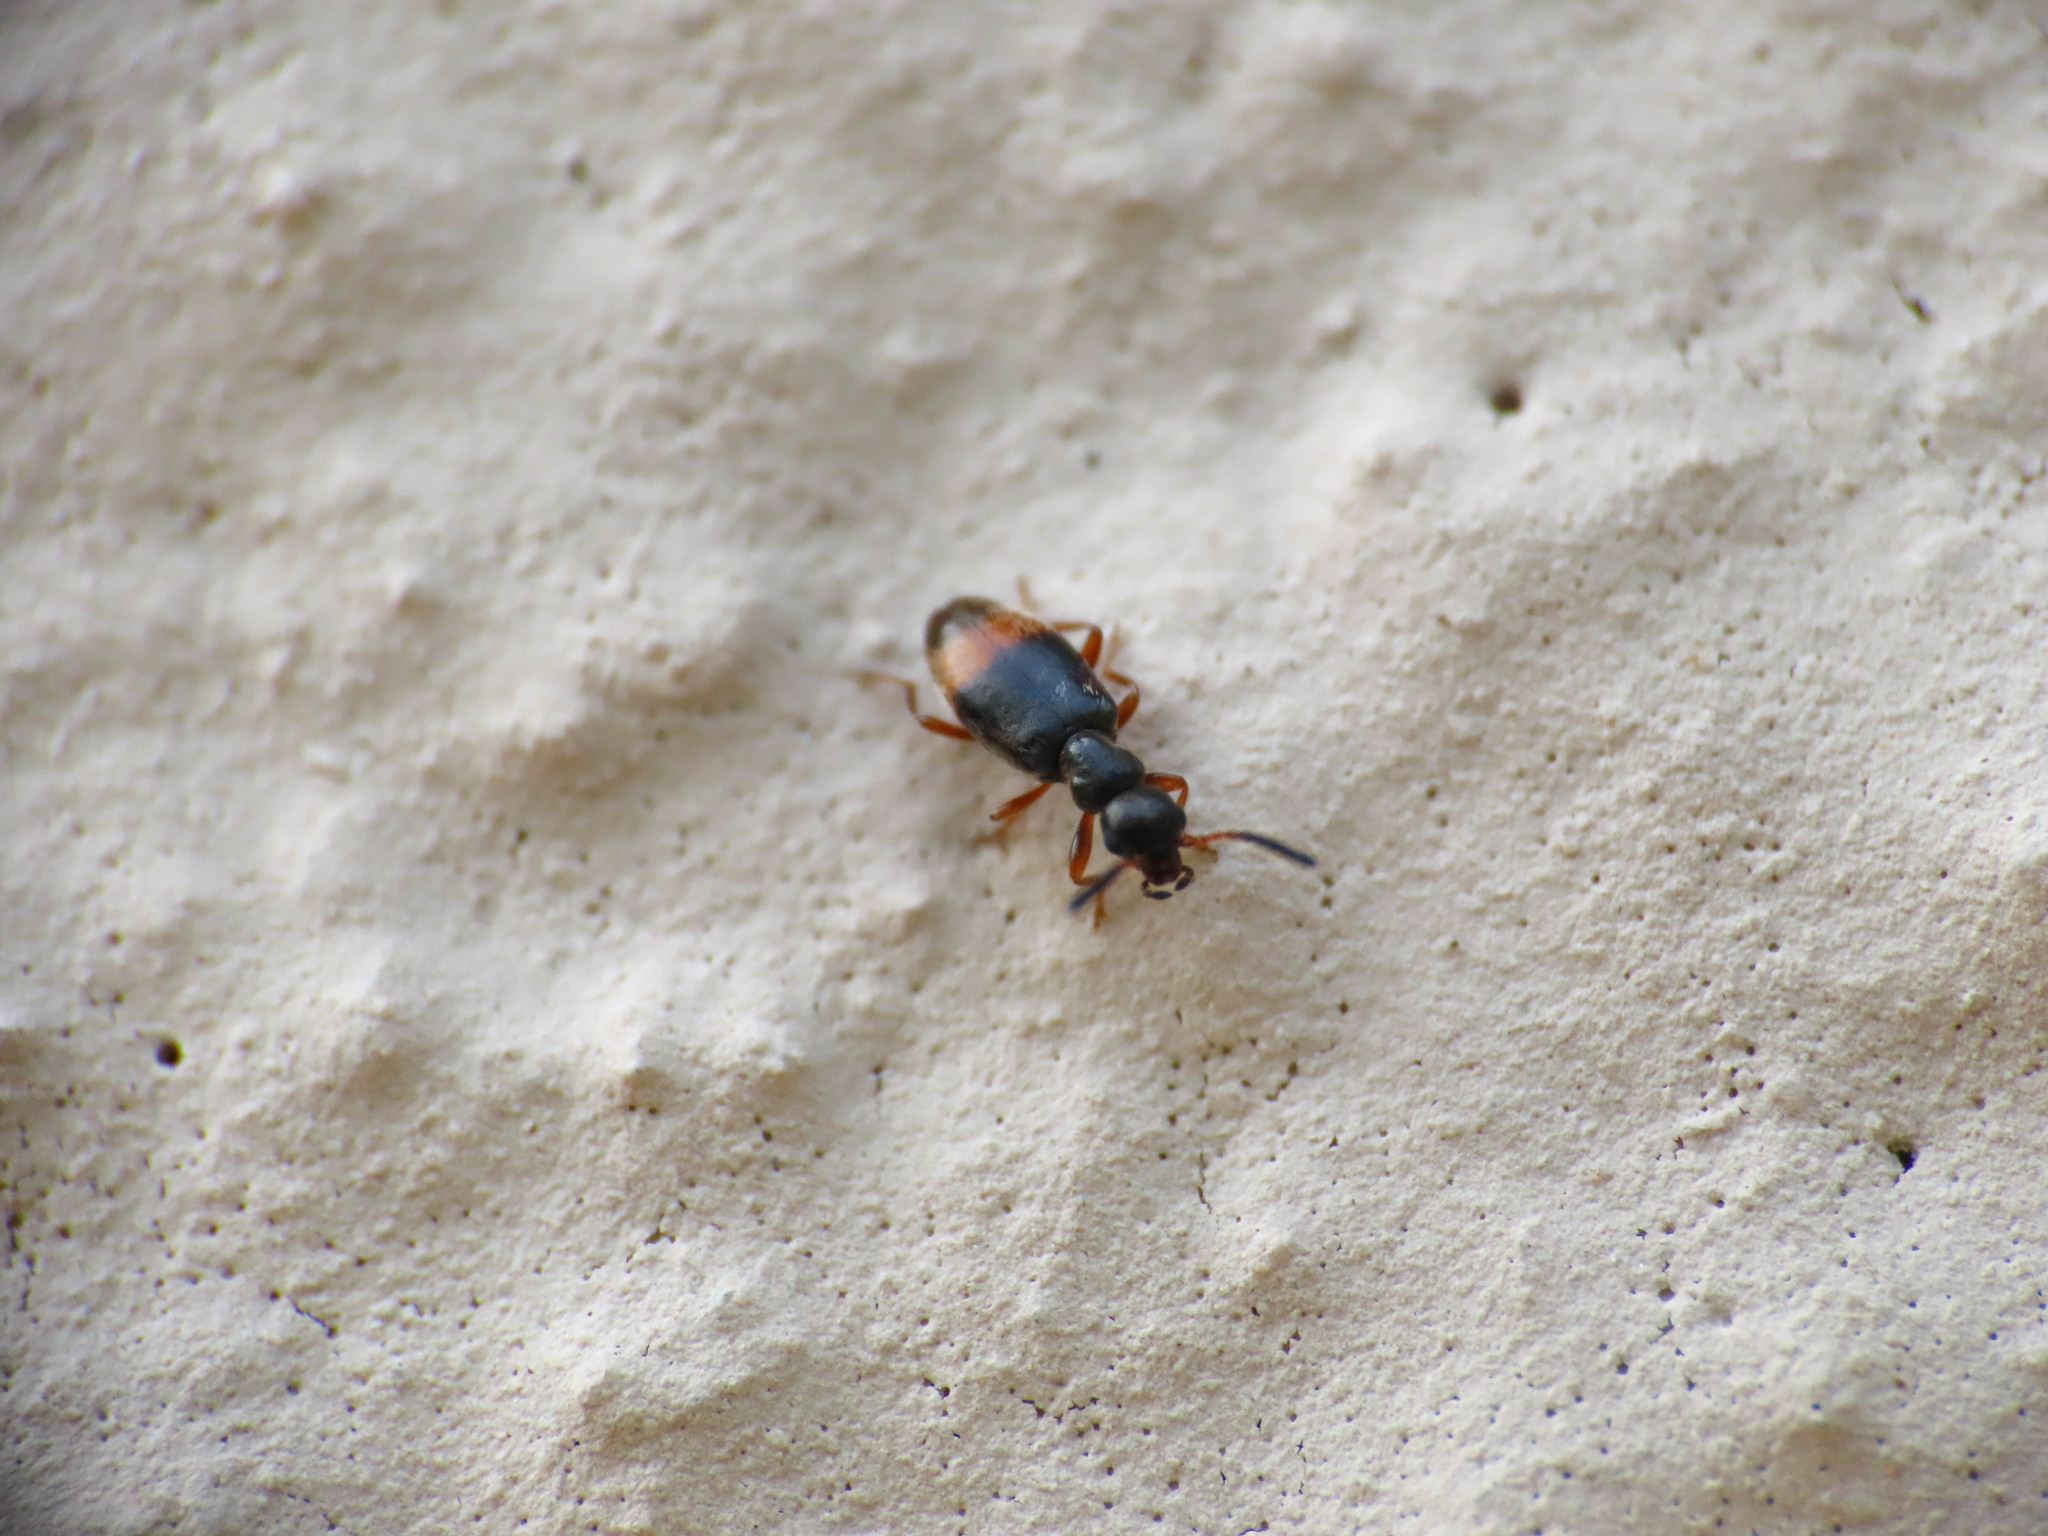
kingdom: Animalia
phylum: Arthropoda
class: Insecta
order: Coleoptera
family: Anthicidae
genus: Microhoria
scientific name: Microhoria fasciata
